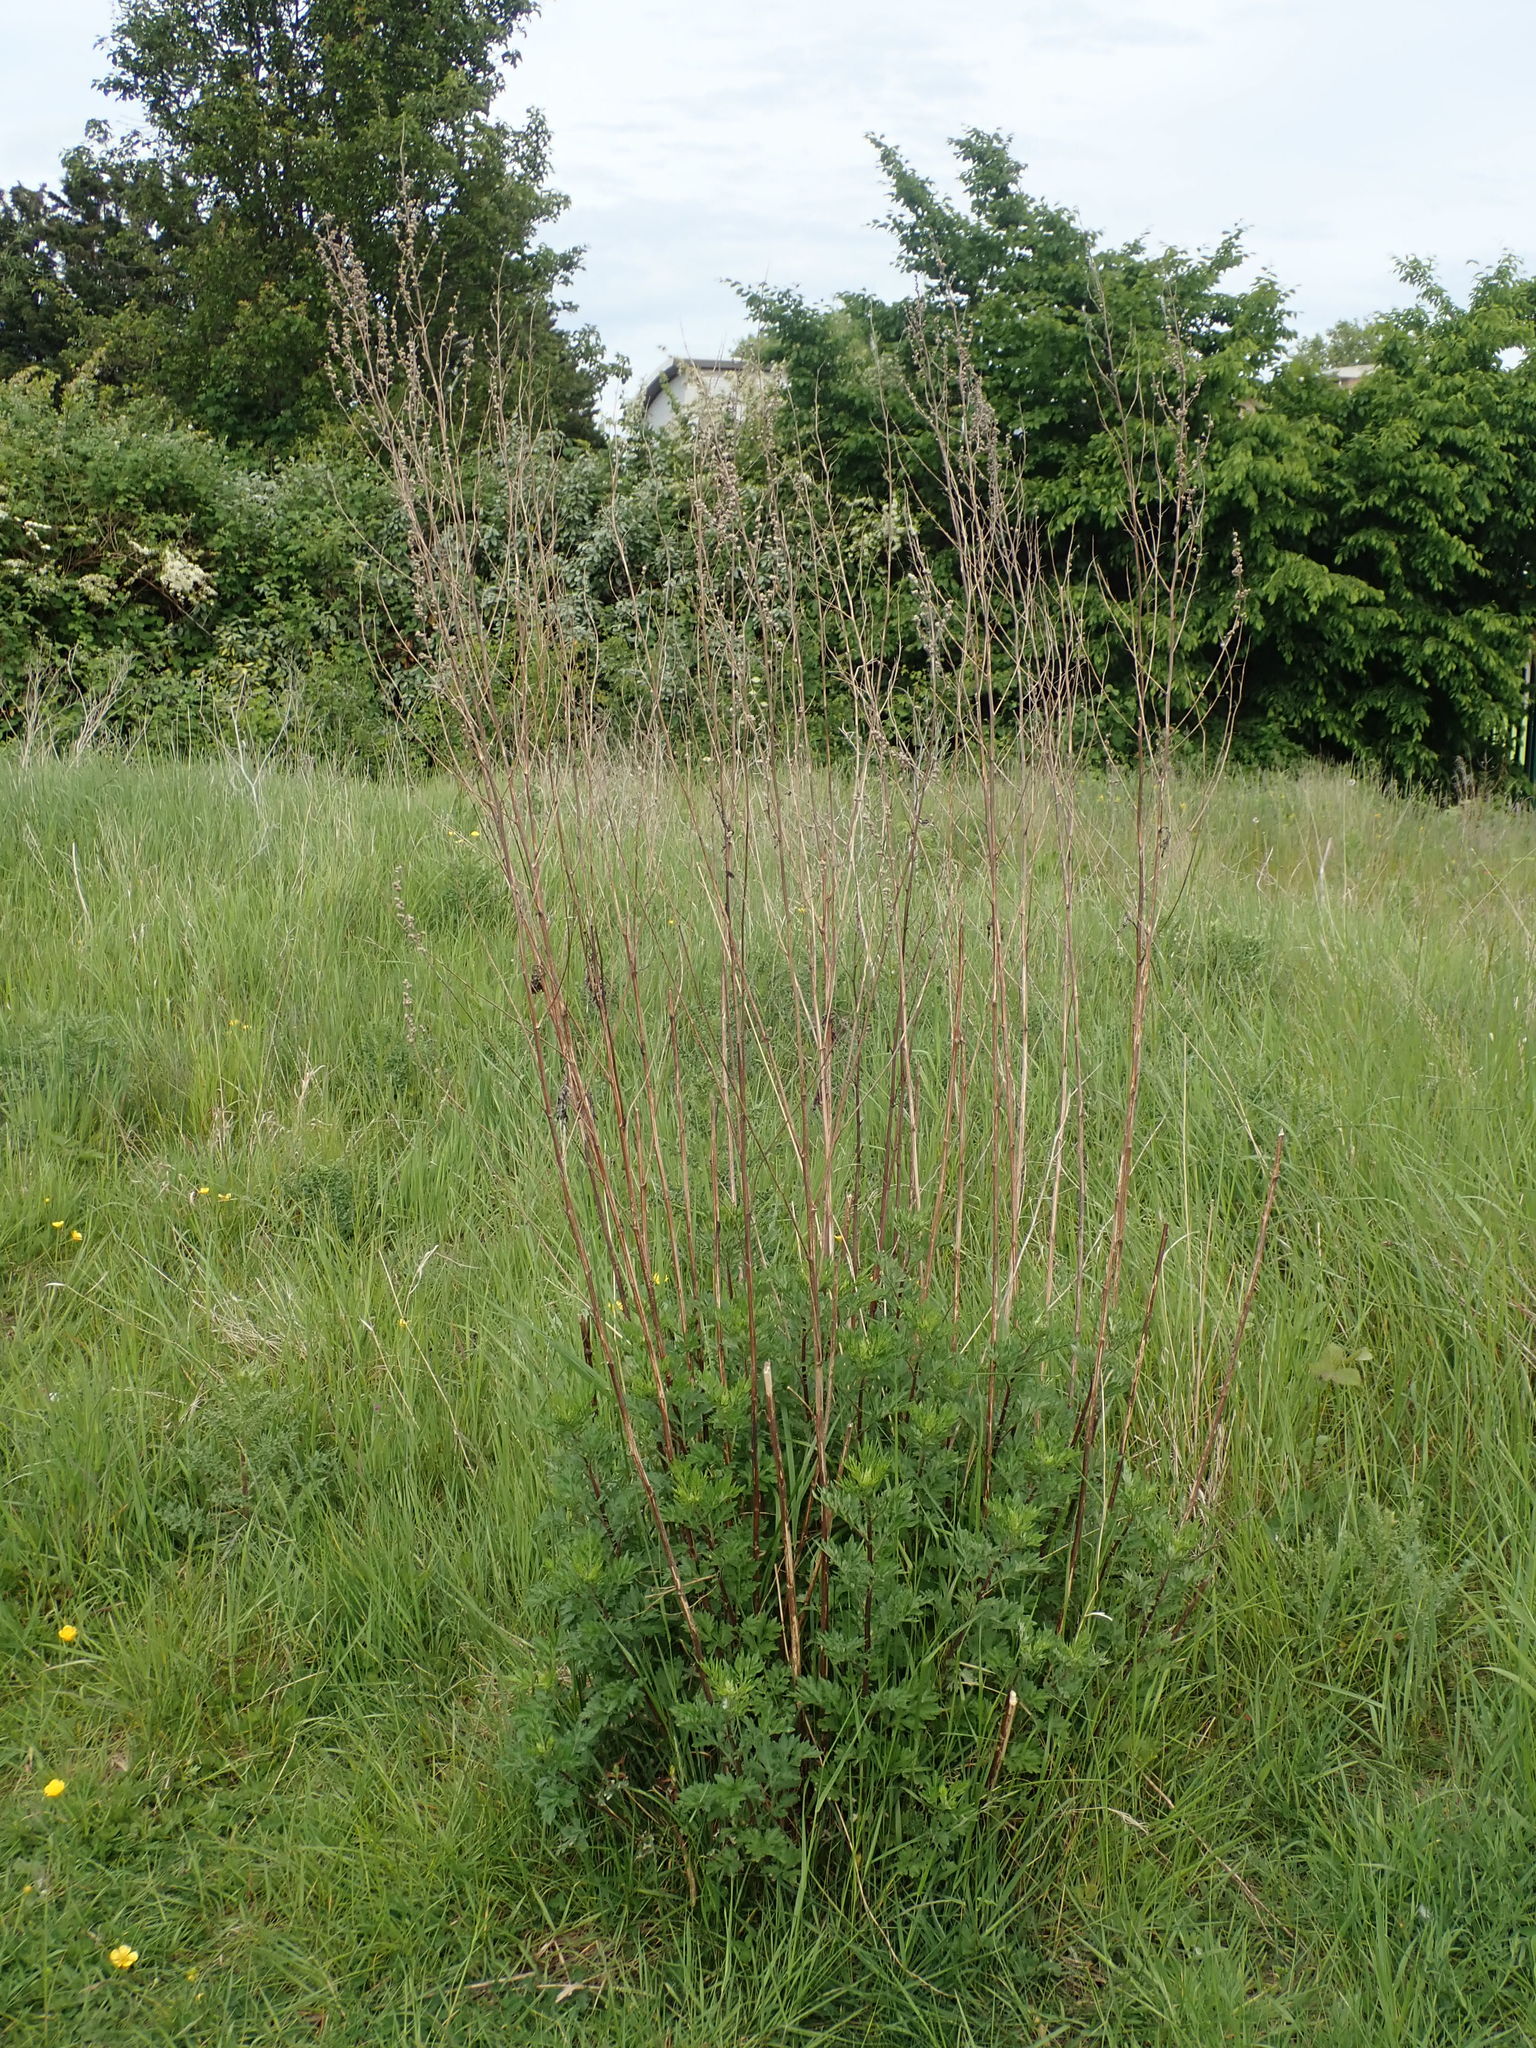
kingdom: Plantae
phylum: Tracheophyta
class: Magnoliopsida
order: Asterales
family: Asteraceae
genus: Artemisia
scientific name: Artemisia vulgaris
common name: Mugwort
